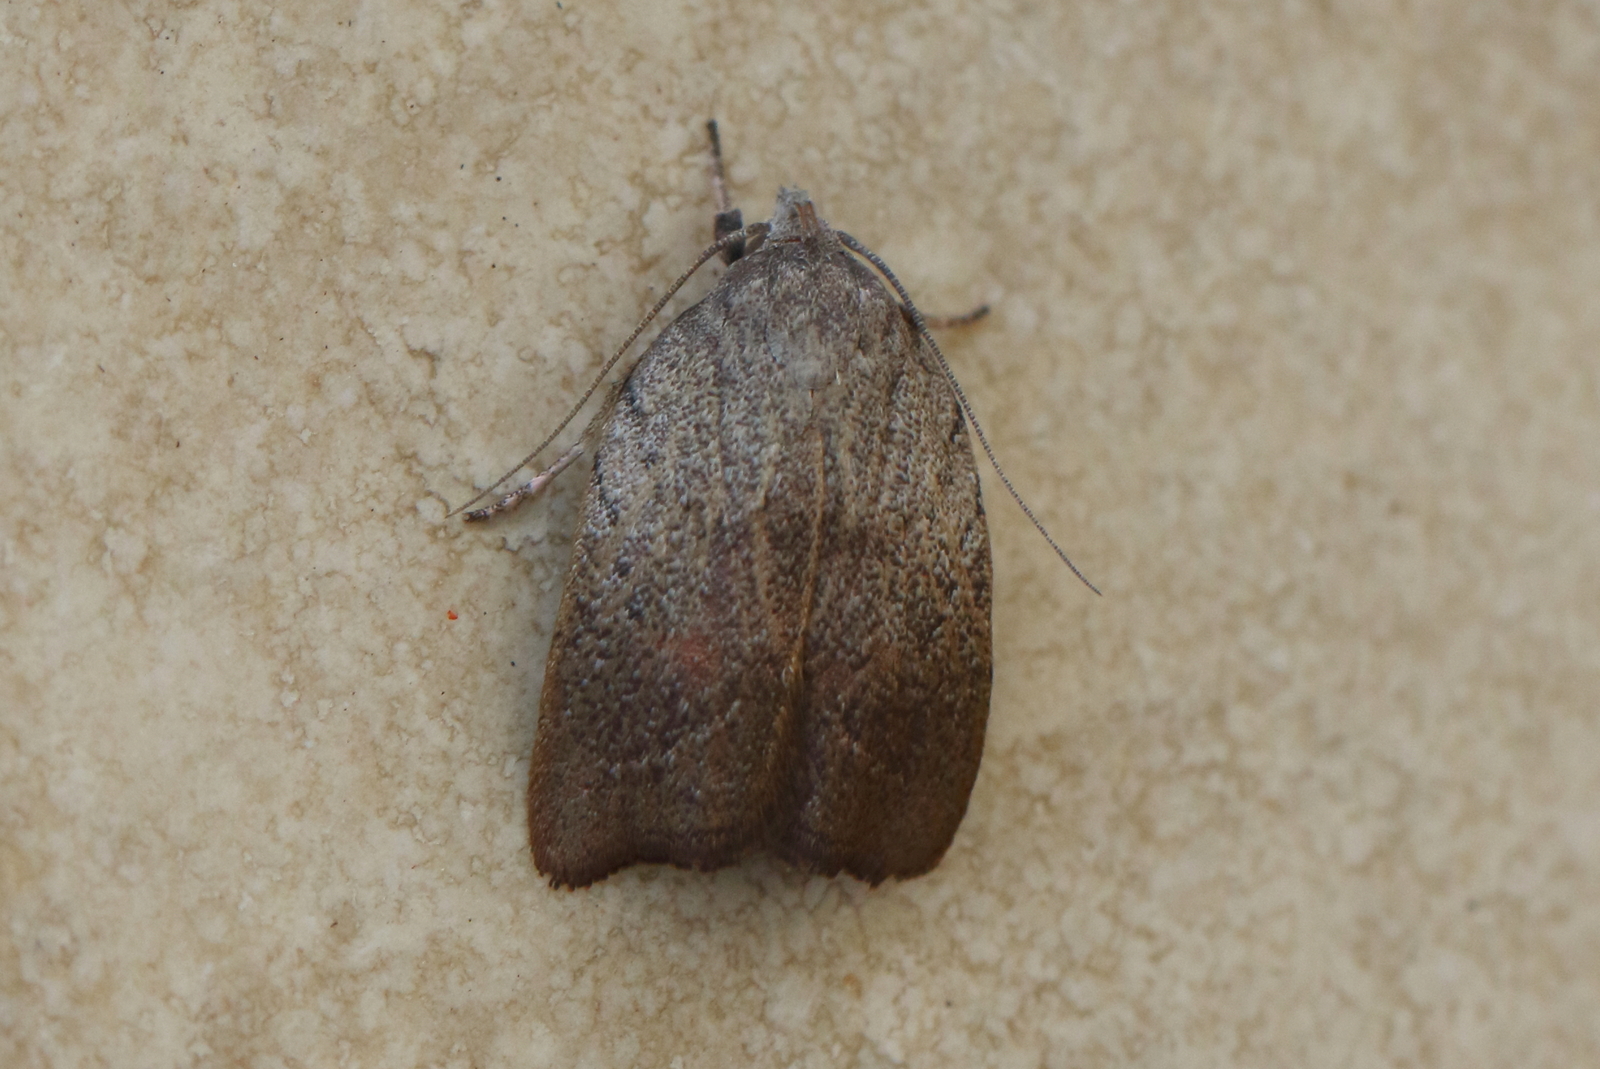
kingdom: Animalia
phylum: Arthropoda
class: Insecta
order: Lepidoptera
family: Oecophoridae
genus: Tortricopsis
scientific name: Tortricopsis pyroptis
